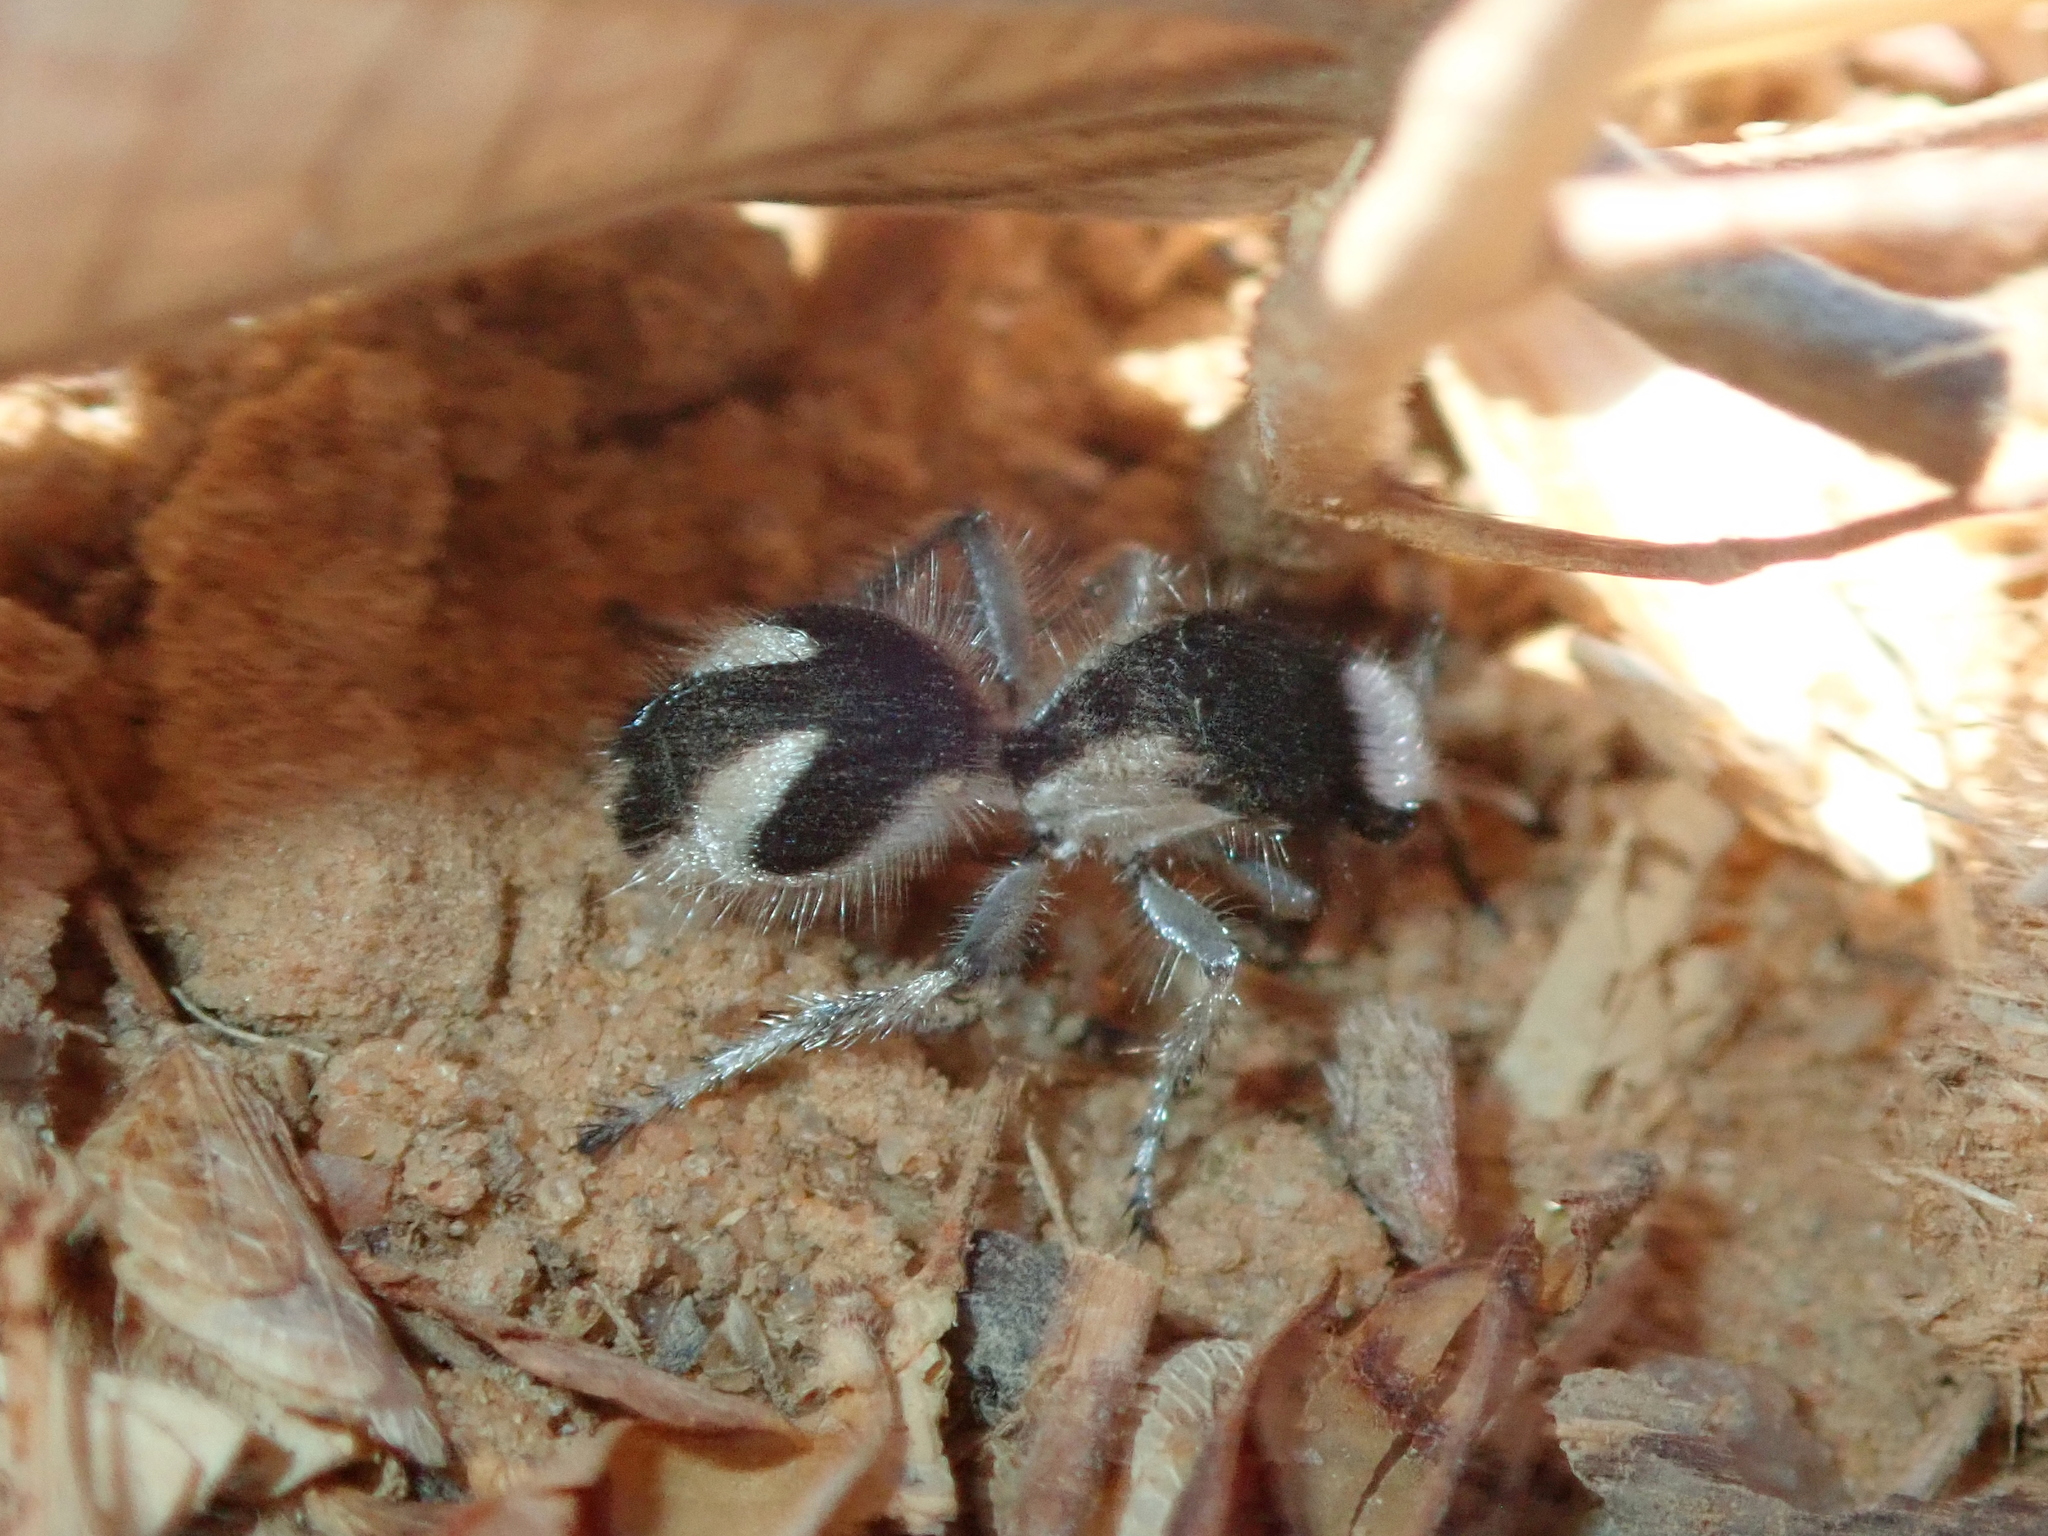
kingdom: Animalia
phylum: Arthropoda
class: Insecta
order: Hymenoptera
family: Mutillidae
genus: Traumatomutilla
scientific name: Traumatomutilla bifurca
